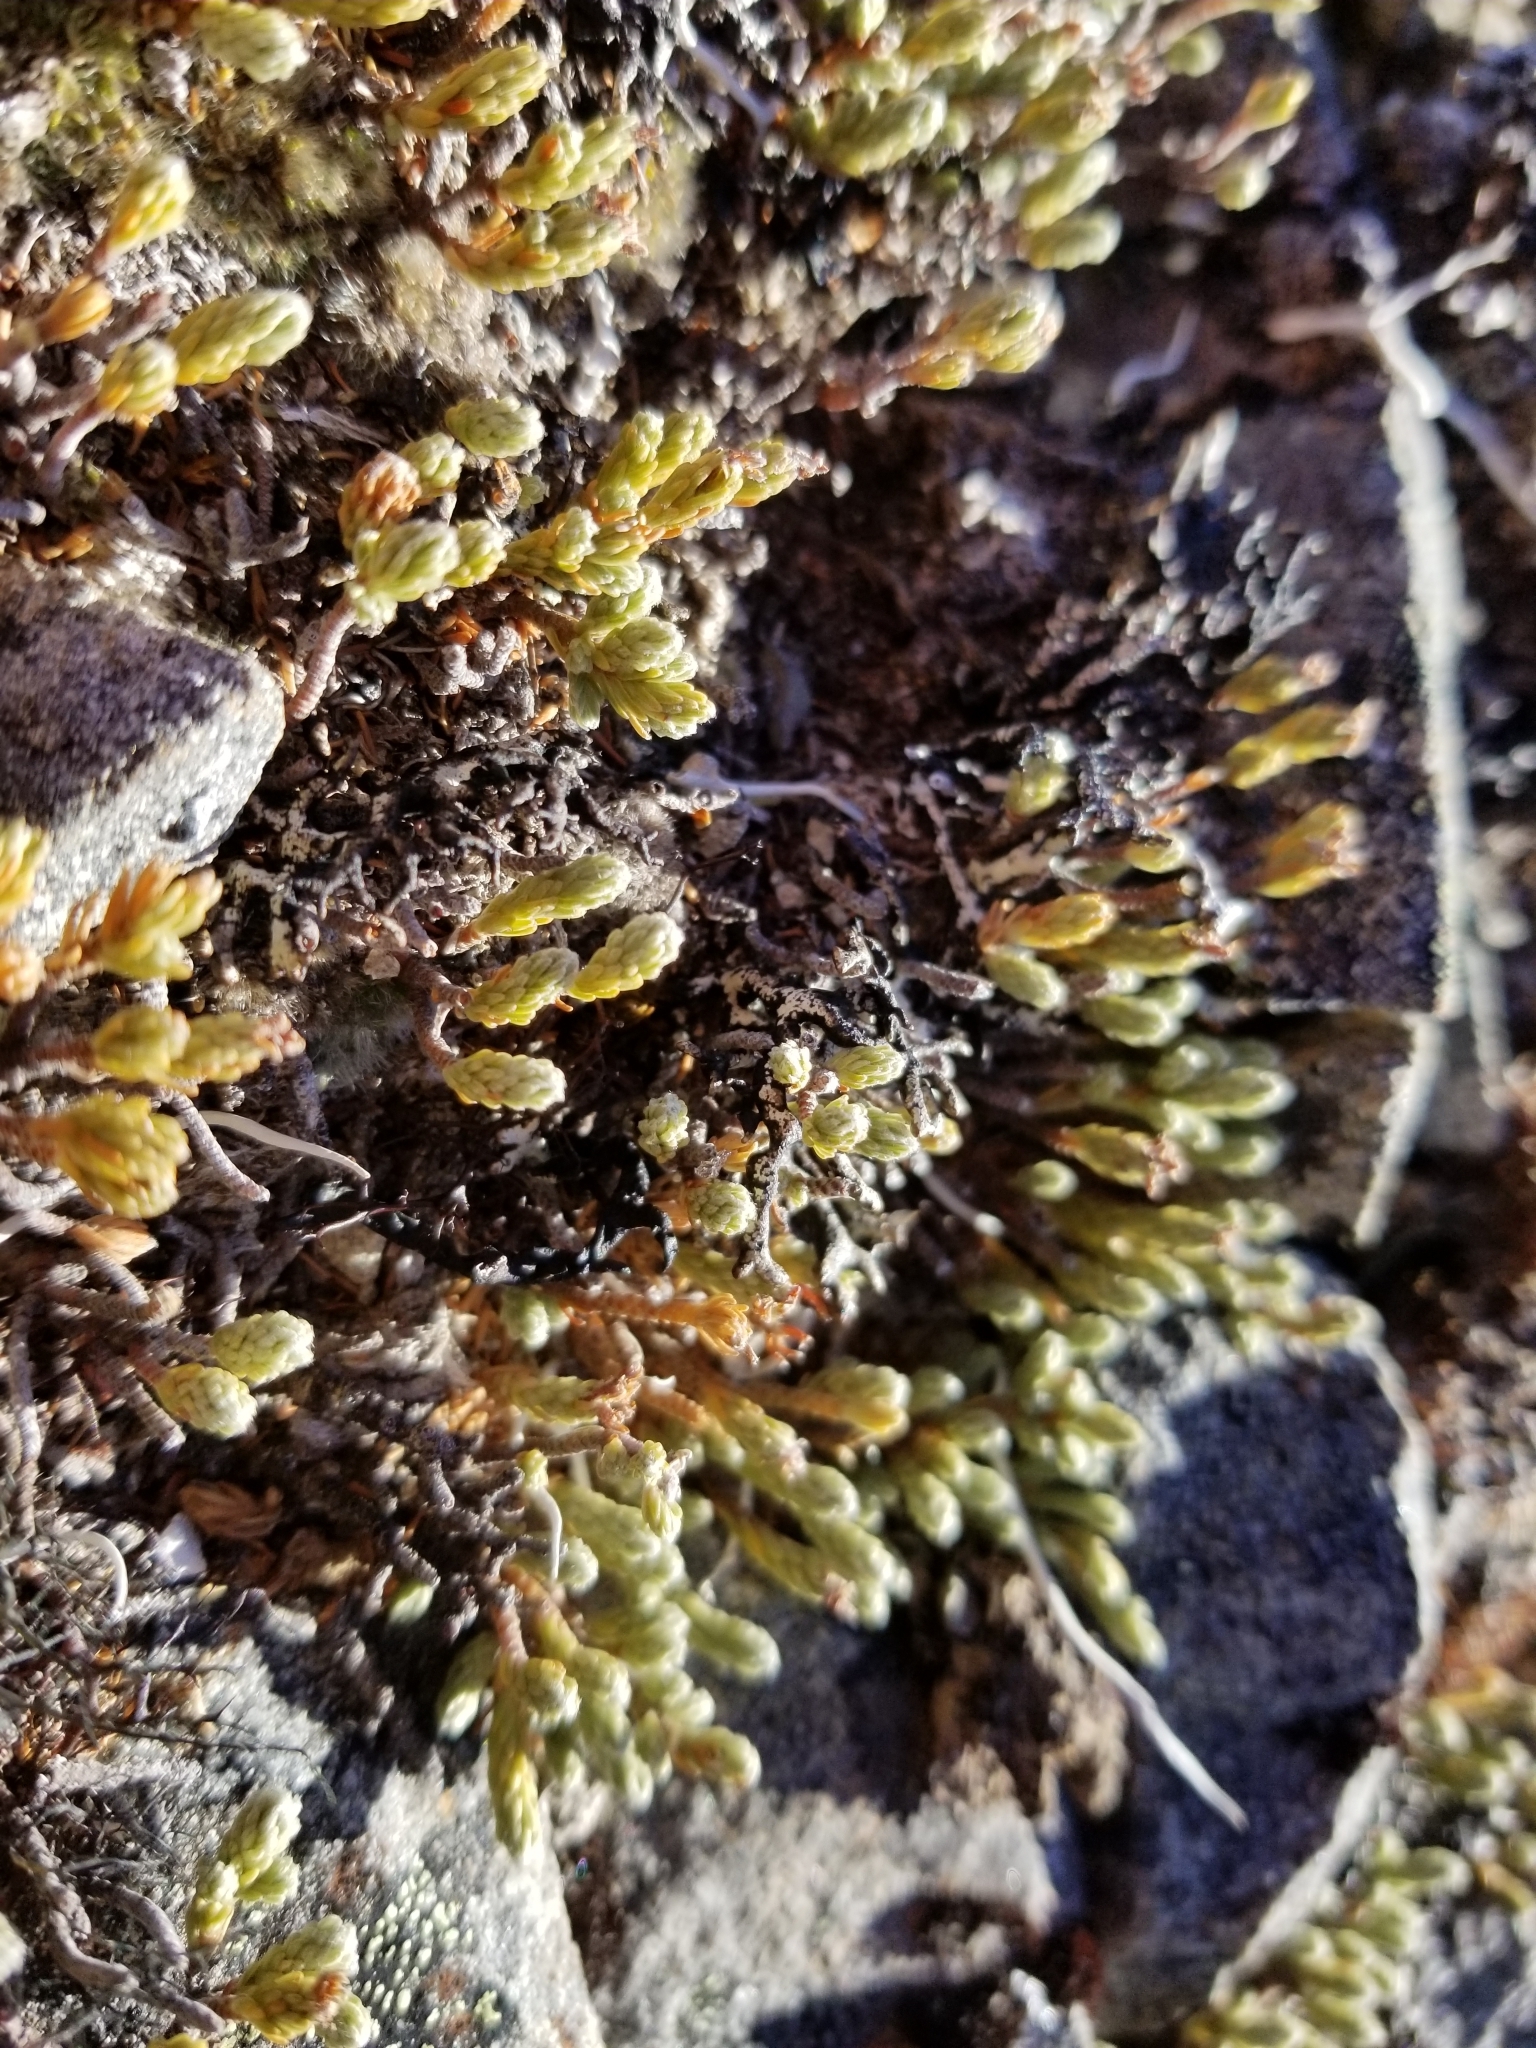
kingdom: Plantae
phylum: Tracheophyta
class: Magnoliopsida
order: Malvales
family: Thymelaeaceae
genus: Kelleria
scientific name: Kelleria dieffenbachii
